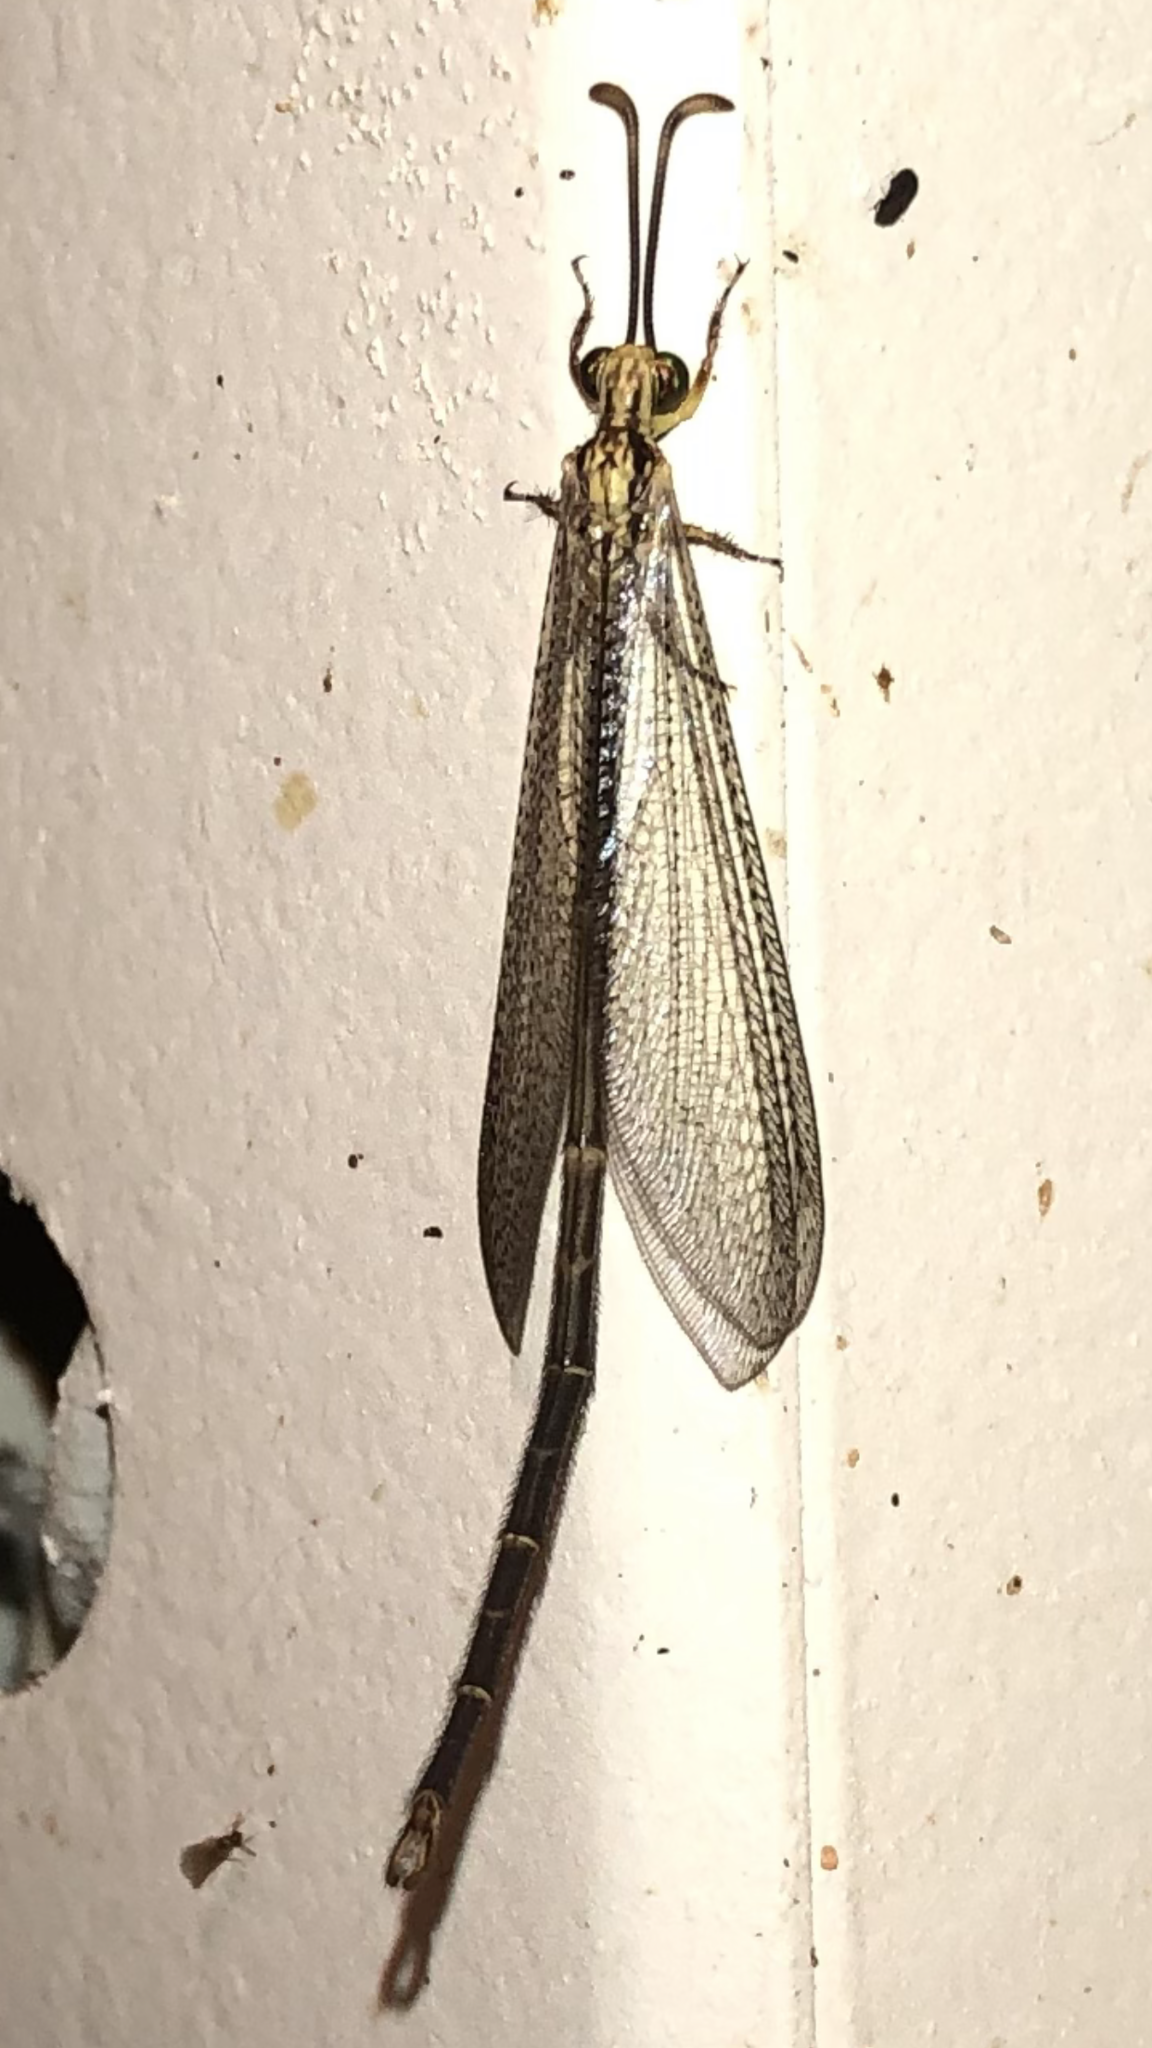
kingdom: Animalia
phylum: Arthropoda
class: Insecta
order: Neuroptera
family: Myrmeleontidae
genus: Brachynemurus
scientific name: Brachynemurus abdominalis
